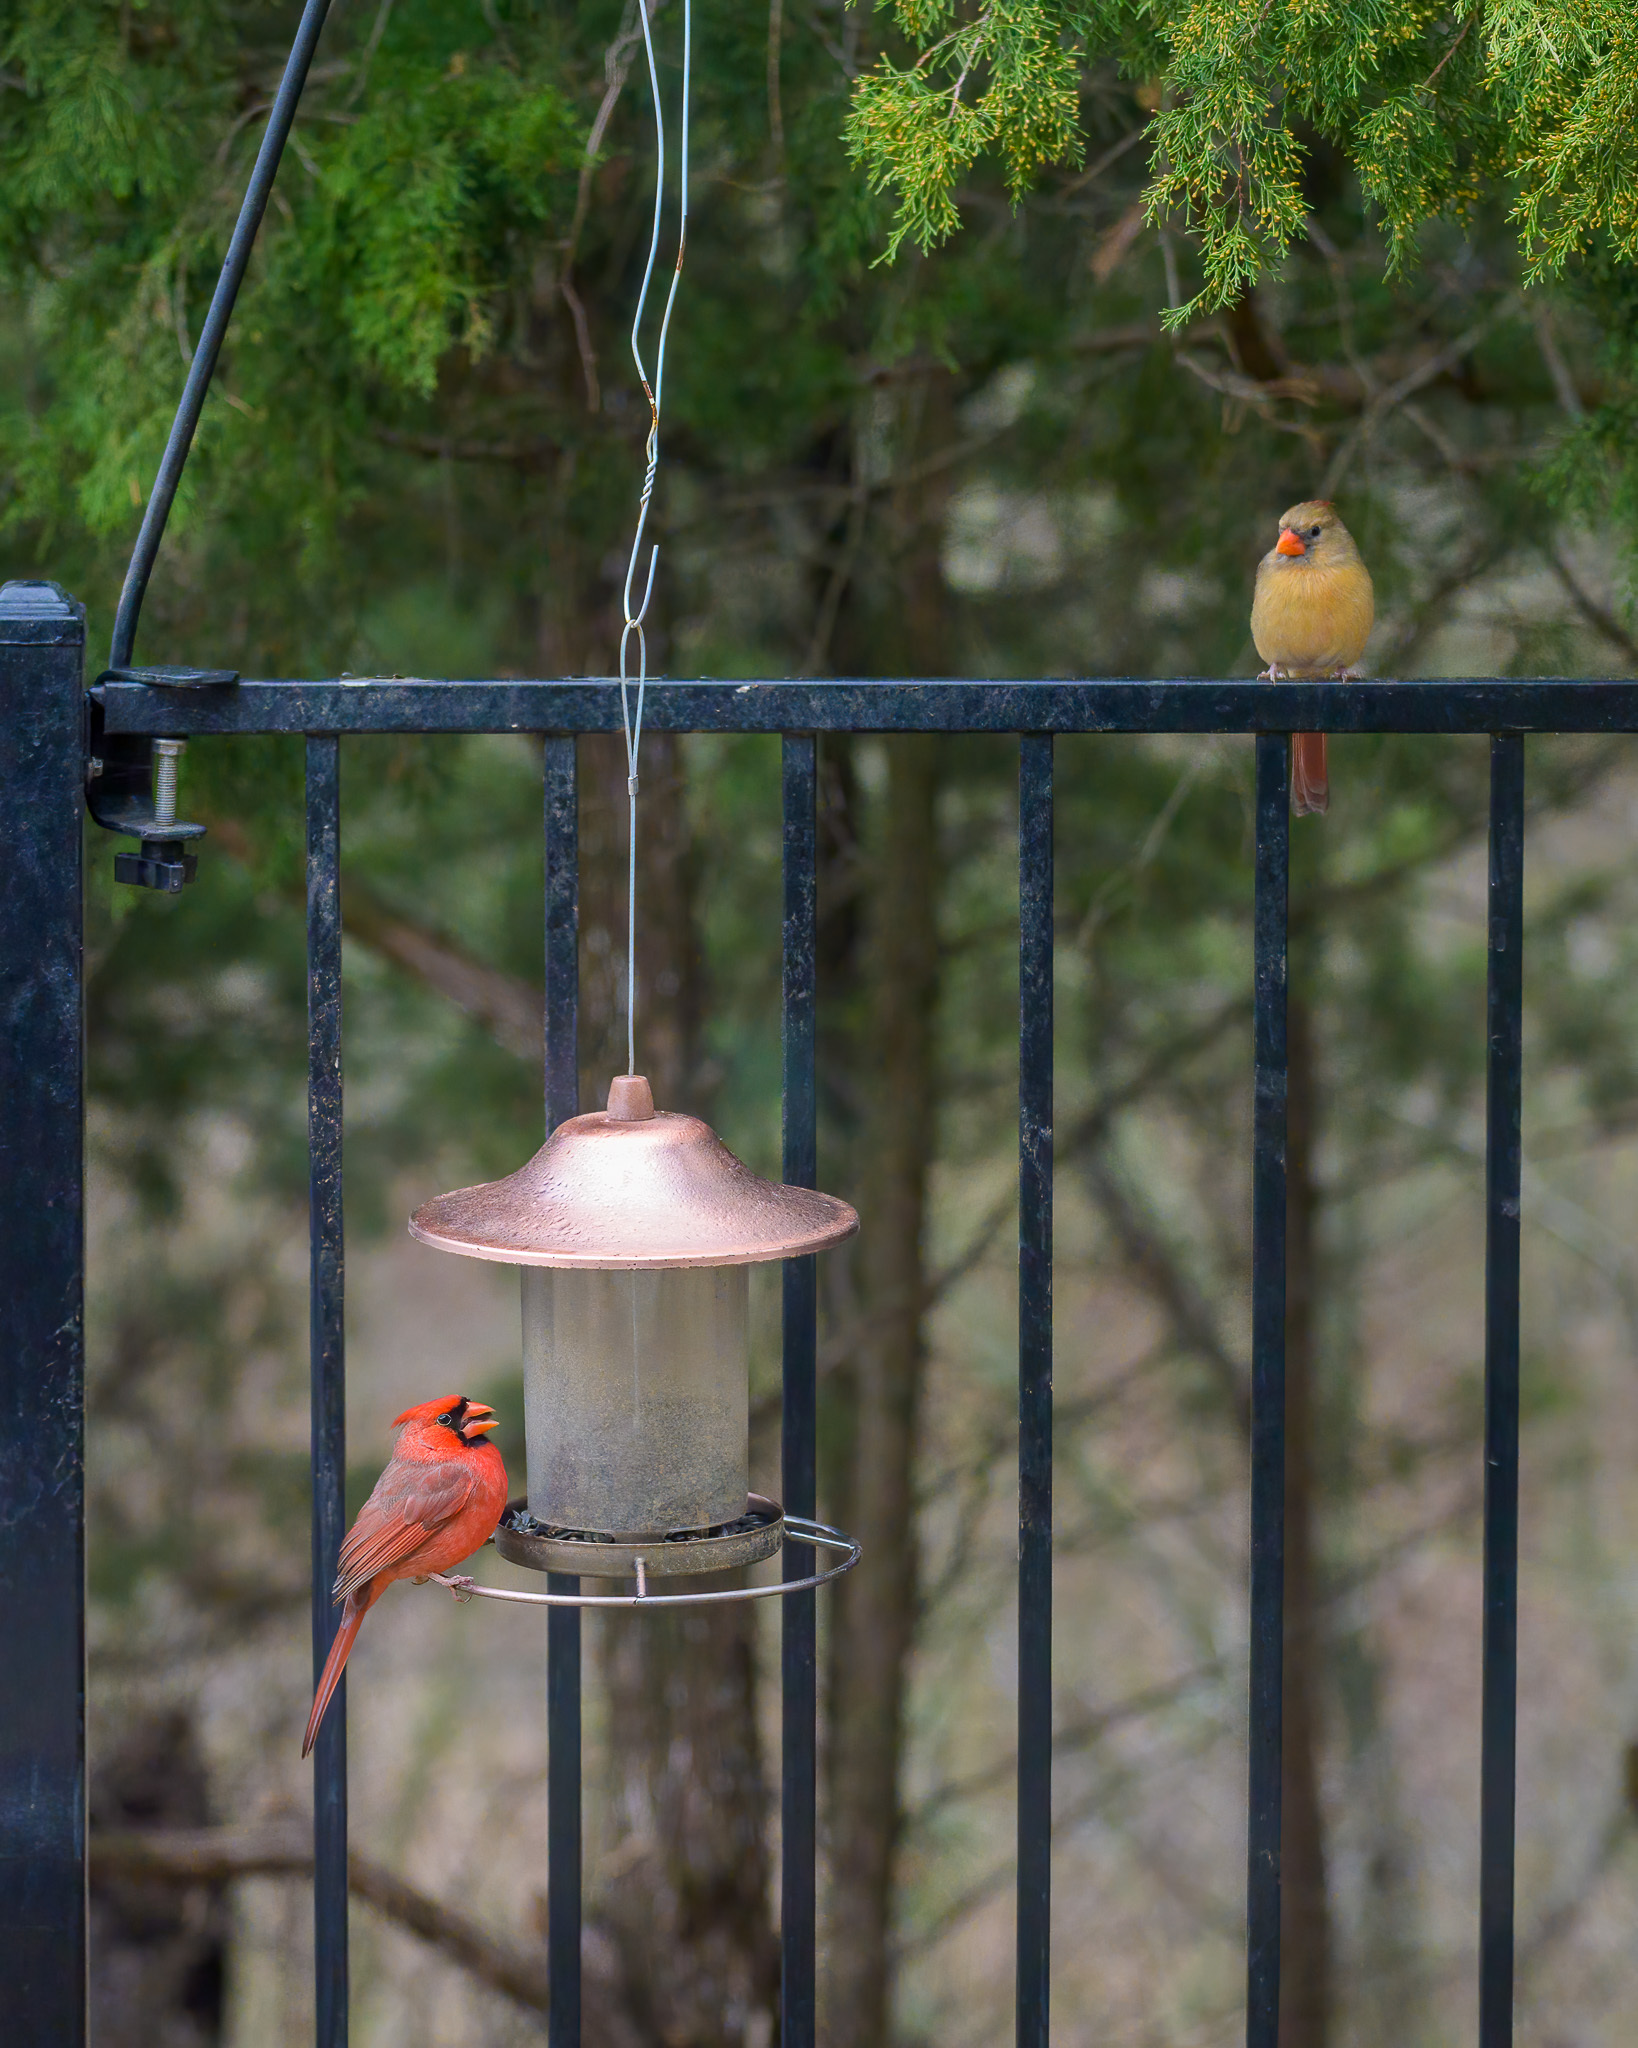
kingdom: Animalia
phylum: Chordata
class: Aves
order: Passeriformes
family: Cardinalidae
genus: Cardinalis
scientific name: Cardinalis cardinalis
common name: Northern cardinal
